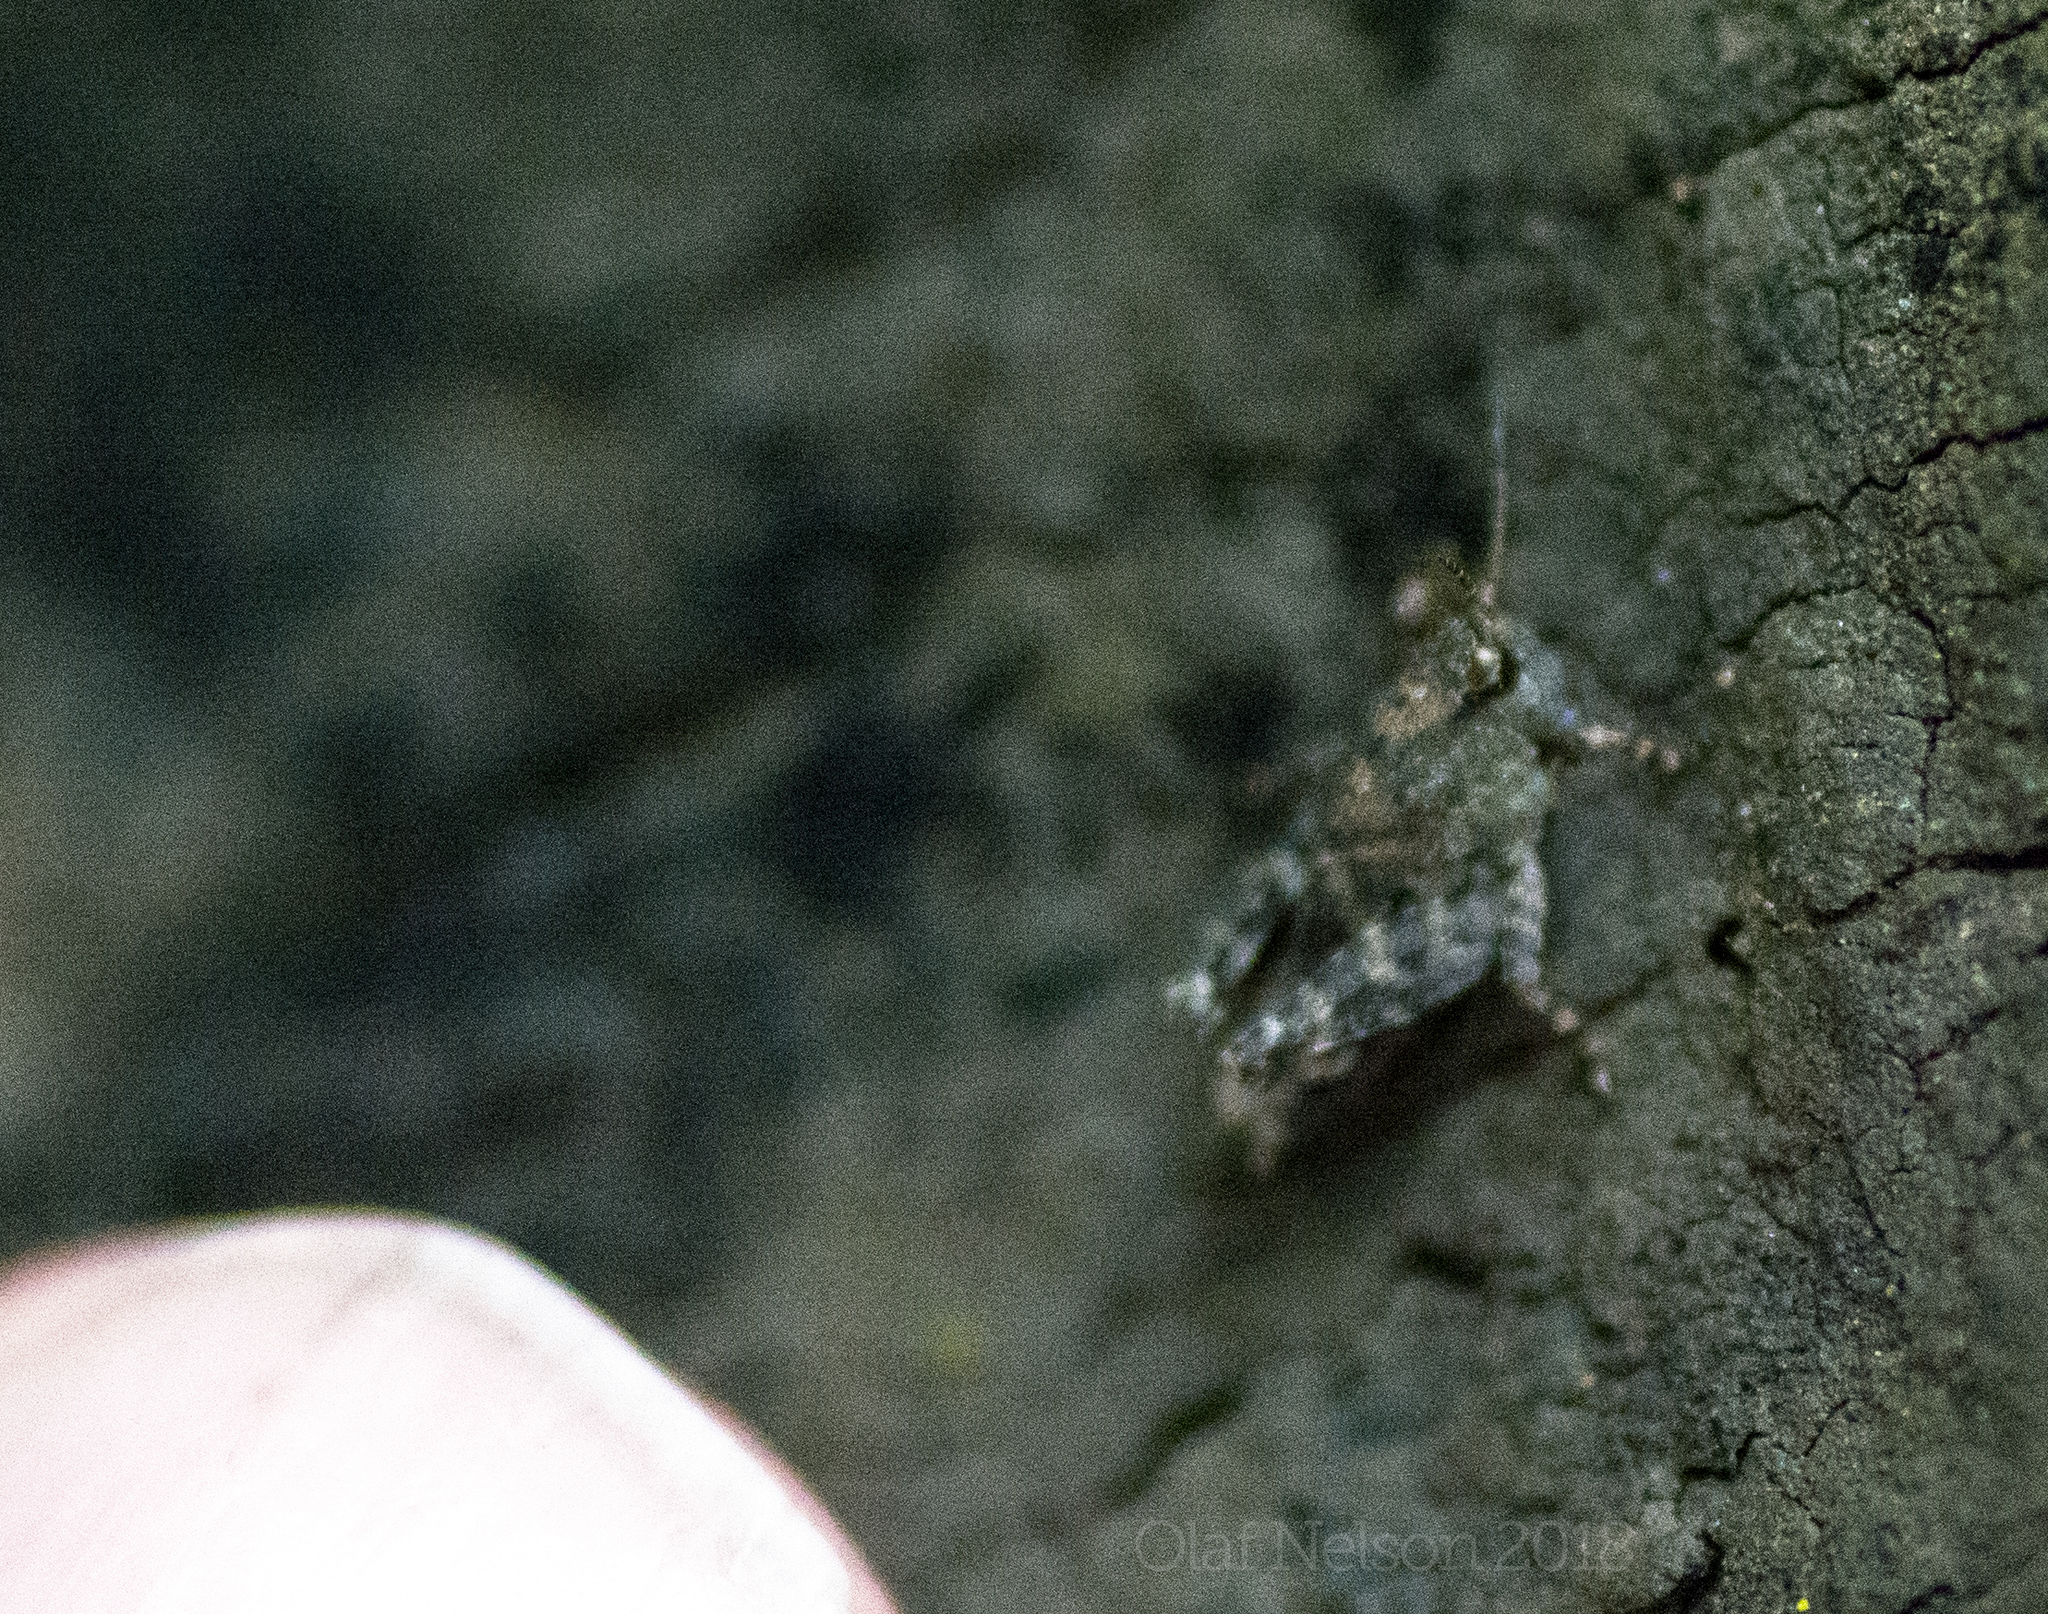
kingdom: Animalia
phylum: Arthropoda
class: Insecta
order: Orthoptera
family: Tetrigidae
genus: Nomotettix
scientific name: Nomotettix cristatus
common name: Crested grouse locust
